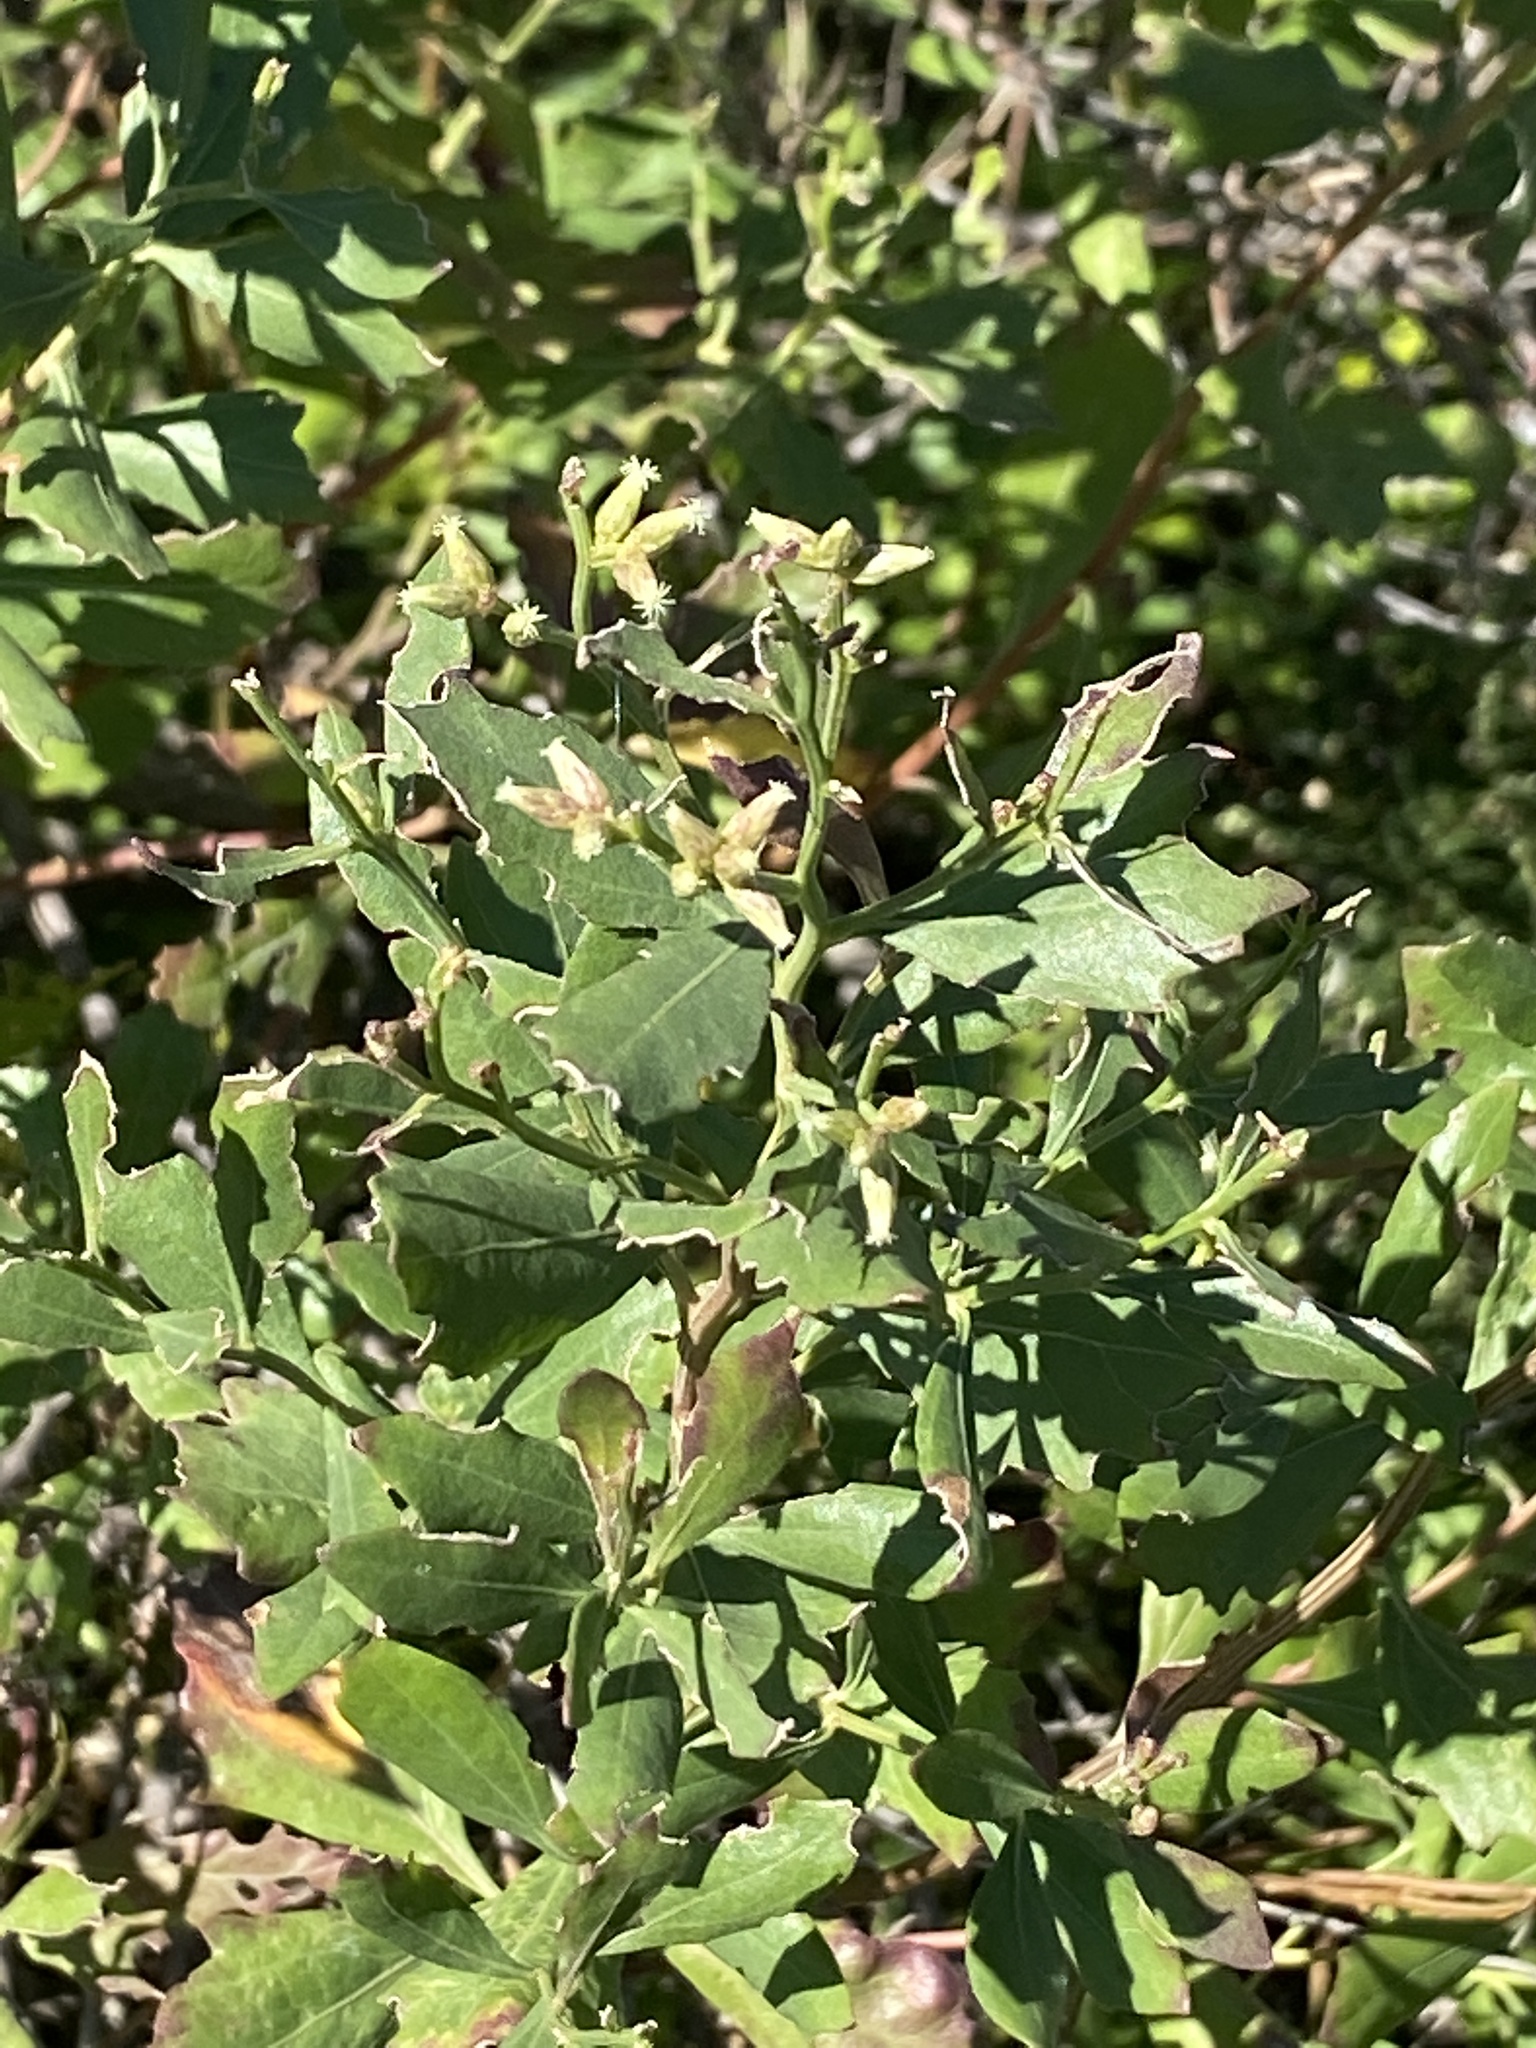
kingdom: Plantae
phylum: Tracheophyta
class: Magnoliopsida
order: Asterales
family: Asteraceae
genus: Baccharis
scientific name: Baccharis halimifolia
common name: Eastern baccharis
